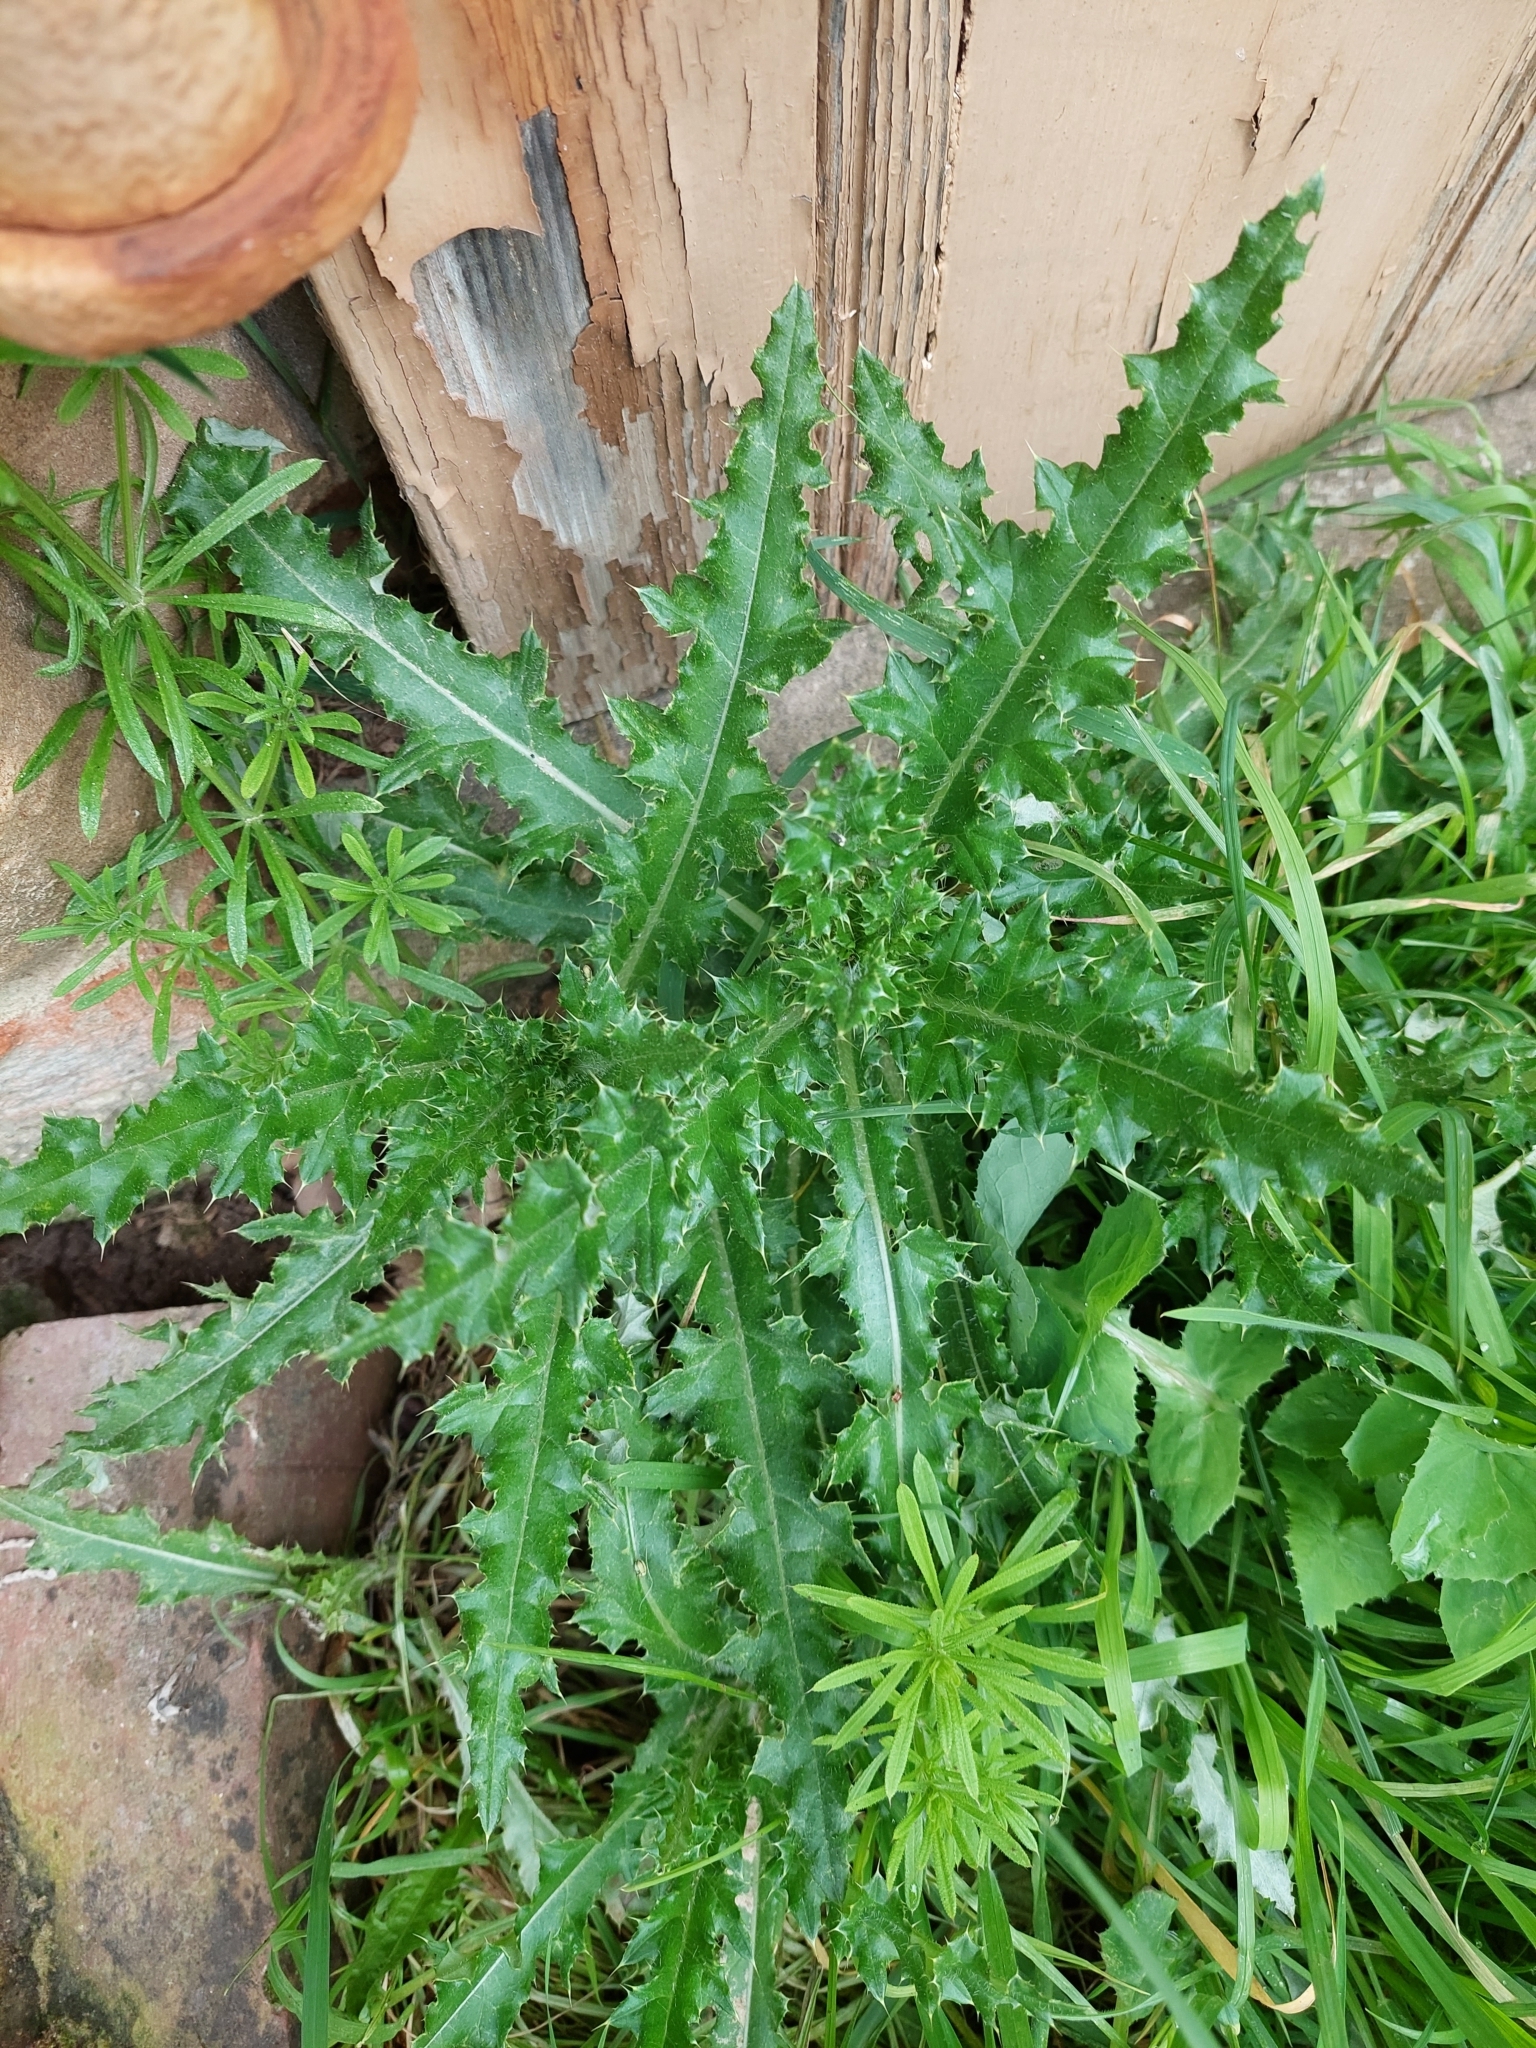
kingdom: Plantae
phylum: Tracheophyta
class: Magnoliopsida
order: Asterales
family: Asteraceae
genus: Cirsium
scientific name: Cirsium arvense
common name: Creeping thistle
